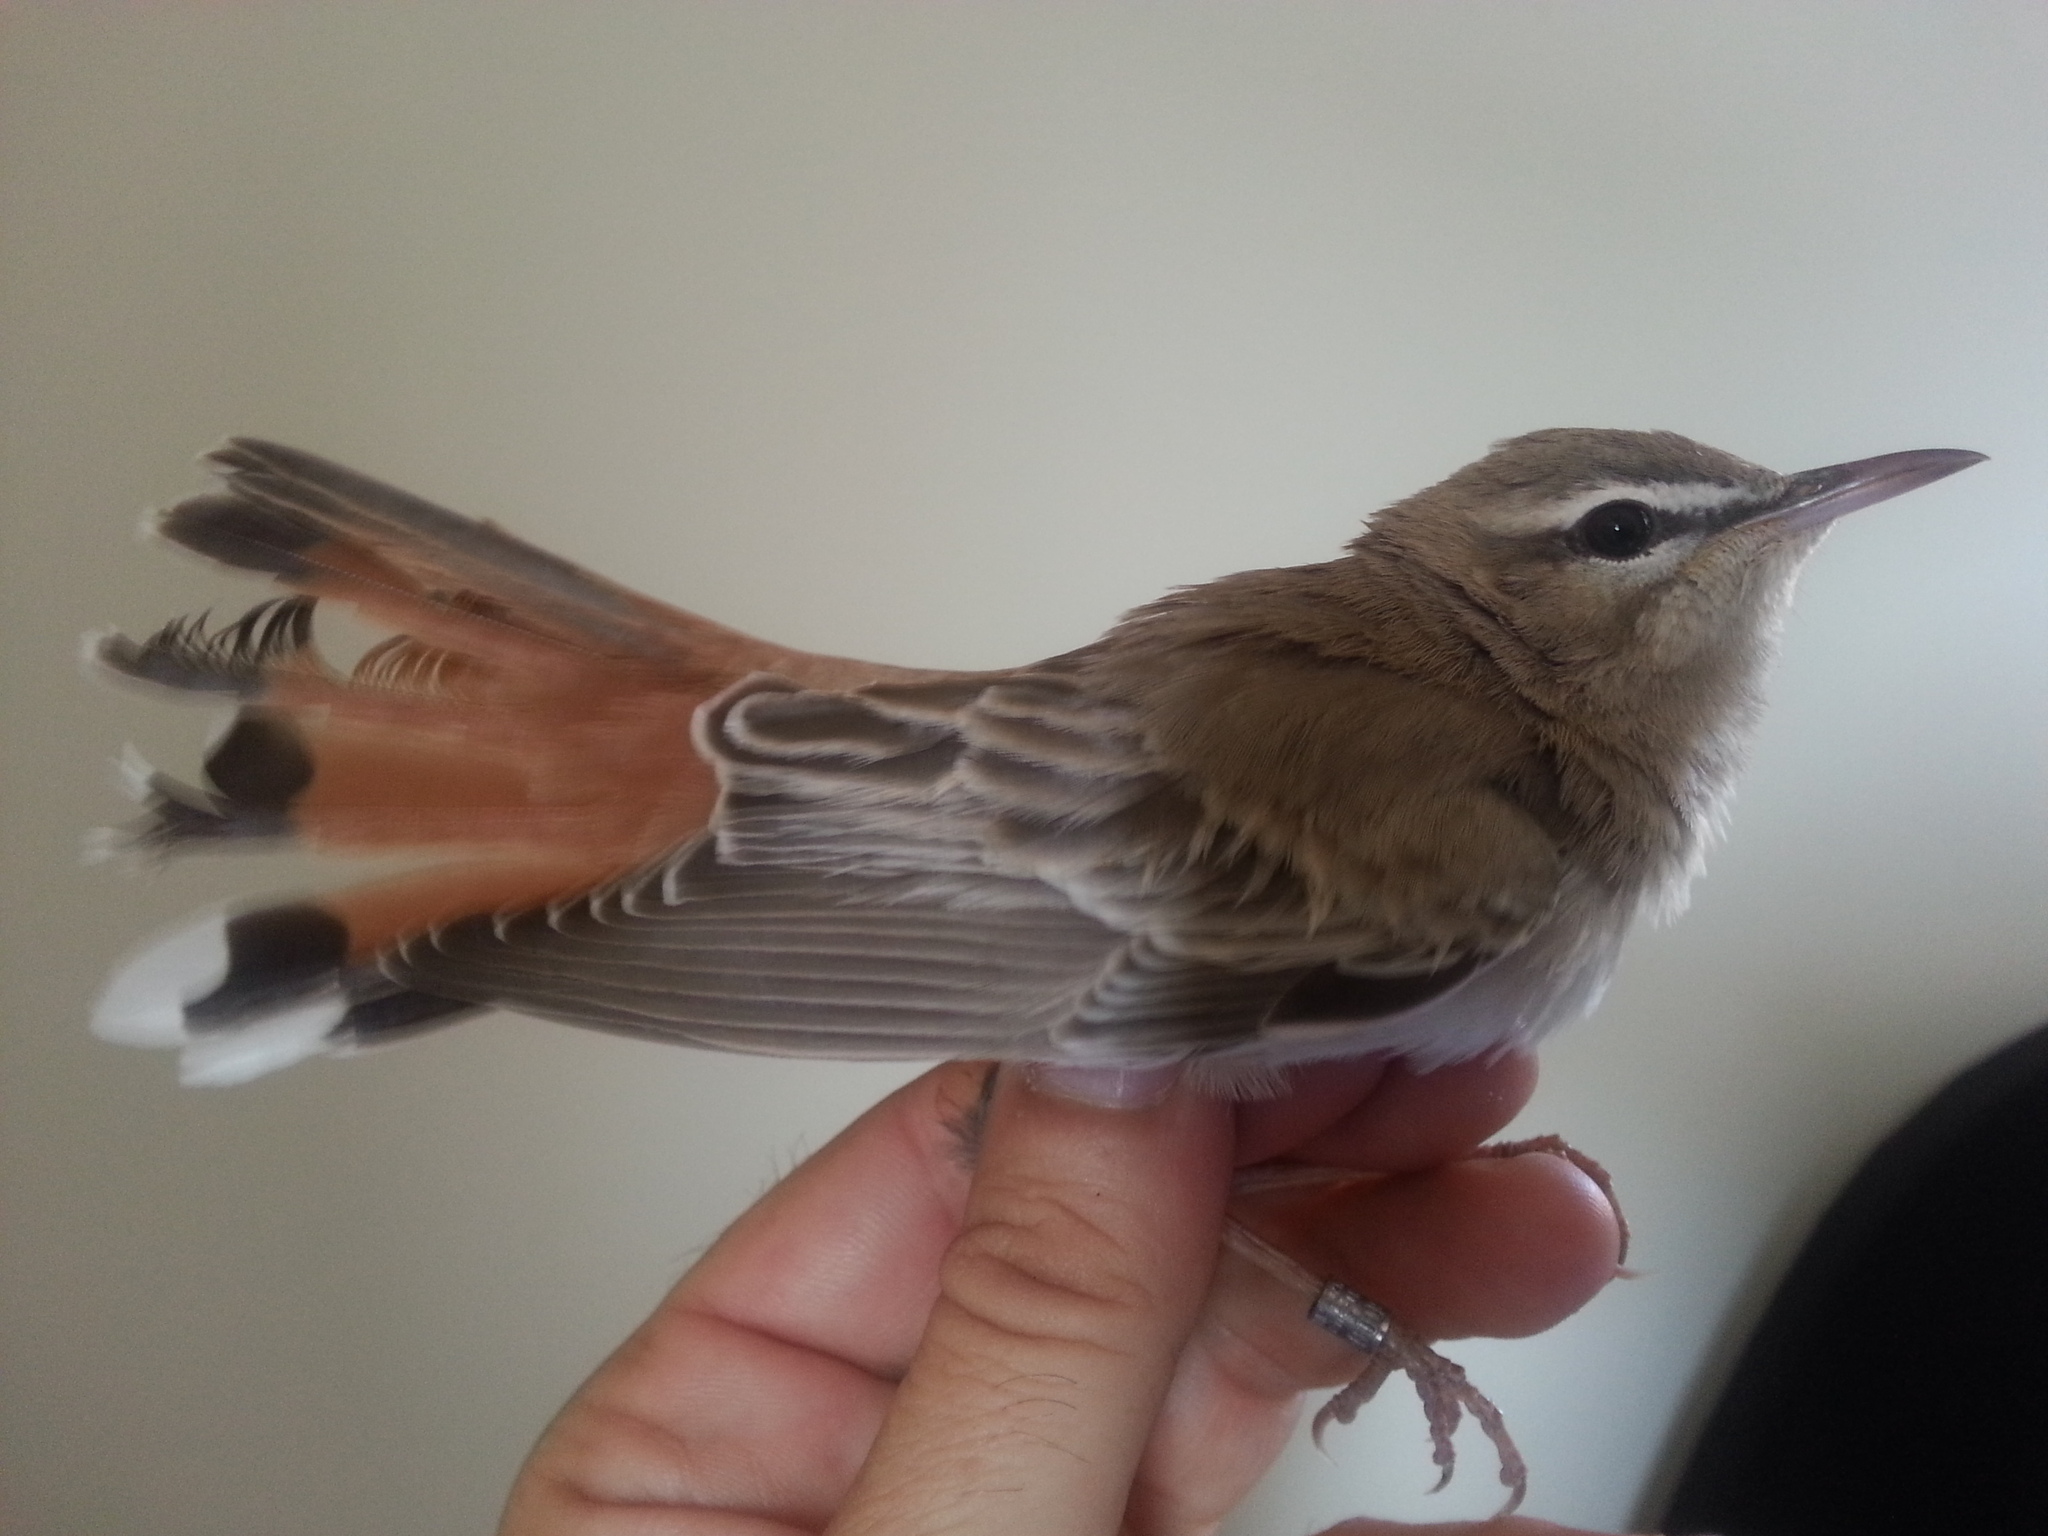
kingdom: Animalia
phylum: Chordata
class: Aves
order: Passeriformes
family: Muscicapidae
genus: Erythropygia
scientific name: Erythropygia galactotes
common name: Rufous-tailed scrub robin
